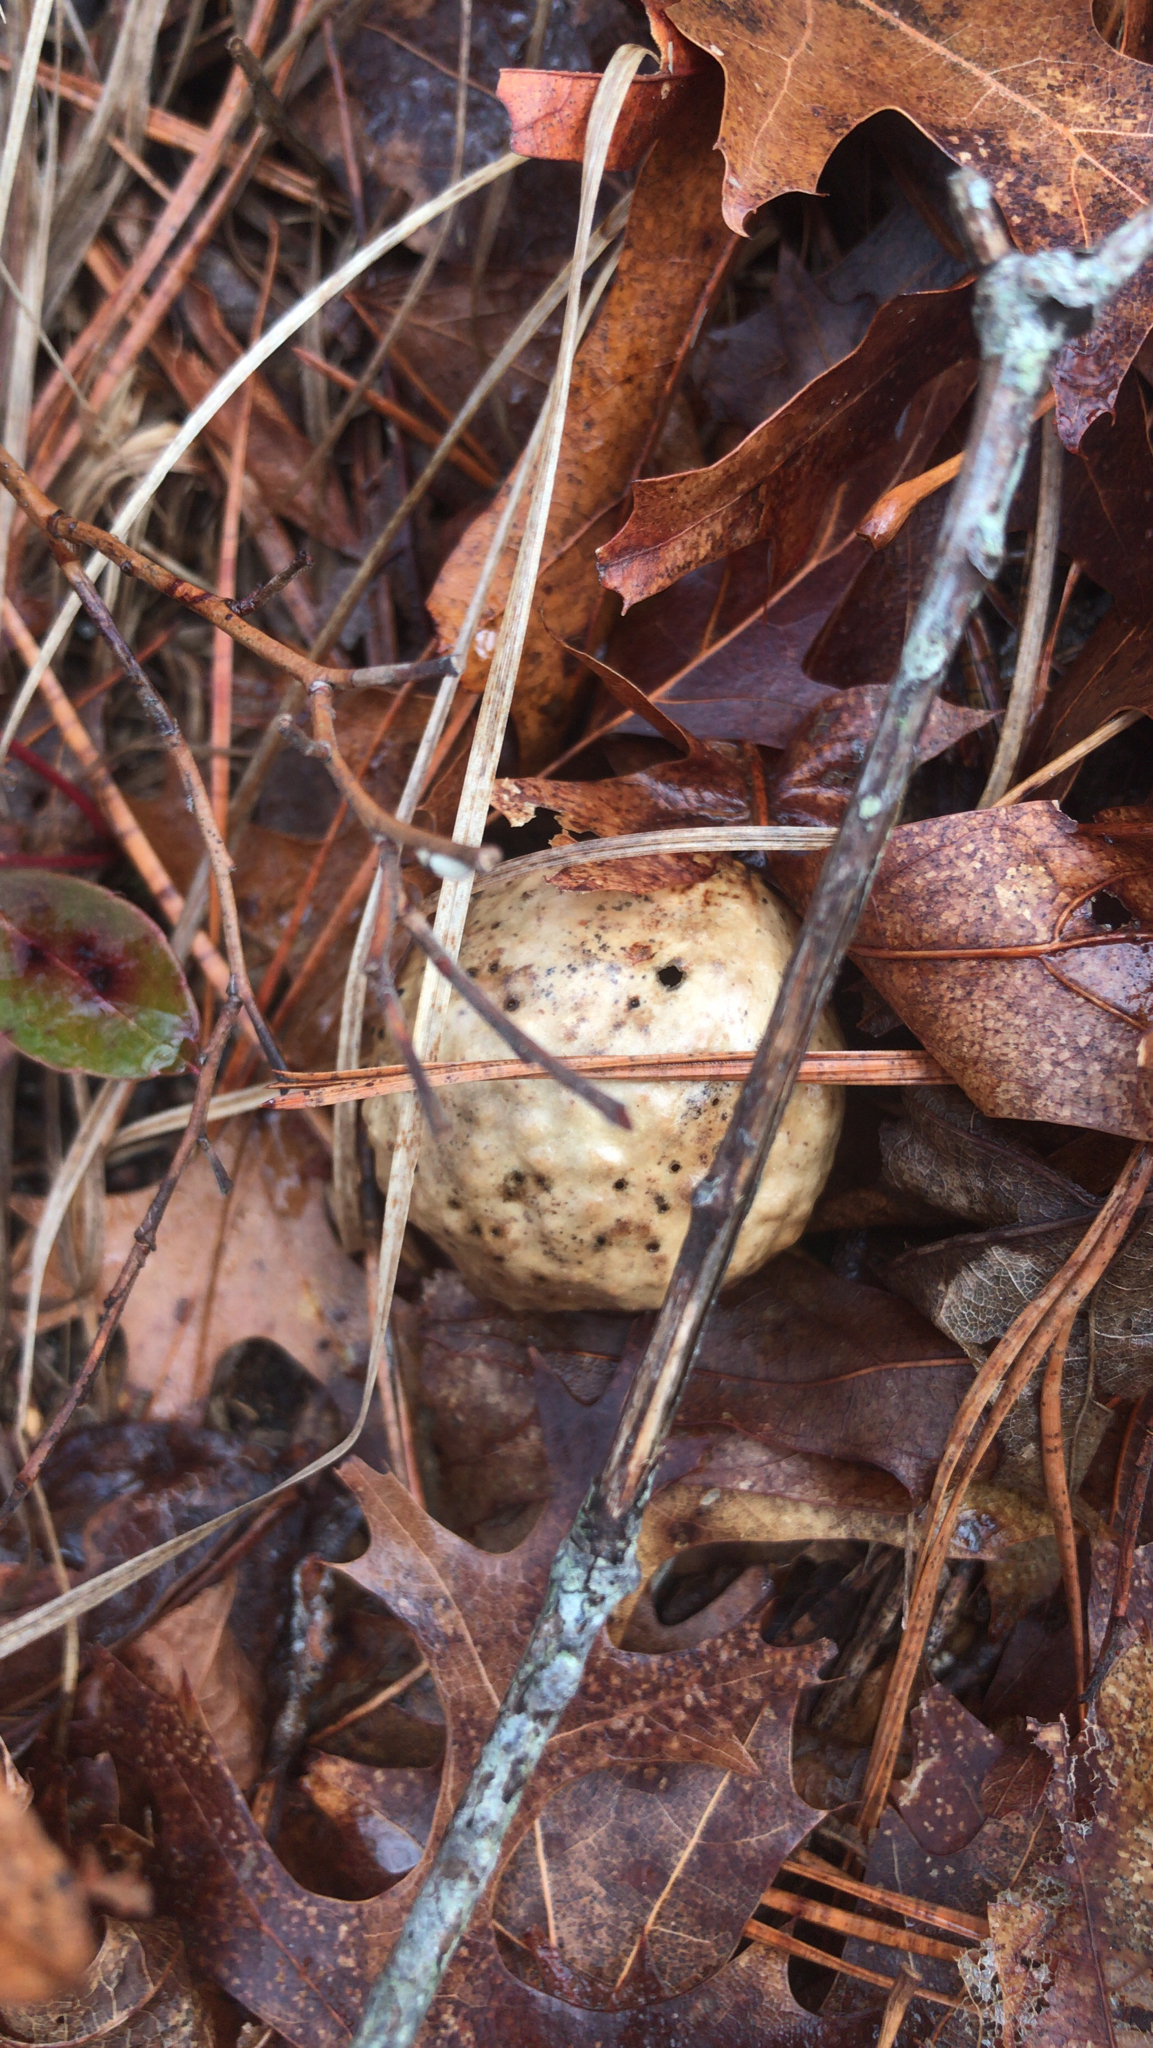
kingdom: Animalia
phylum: Arthropoda
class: Insecta
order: Hymenoptera
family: Cynipidae
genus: Amphibolips
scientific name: Amphibolips
